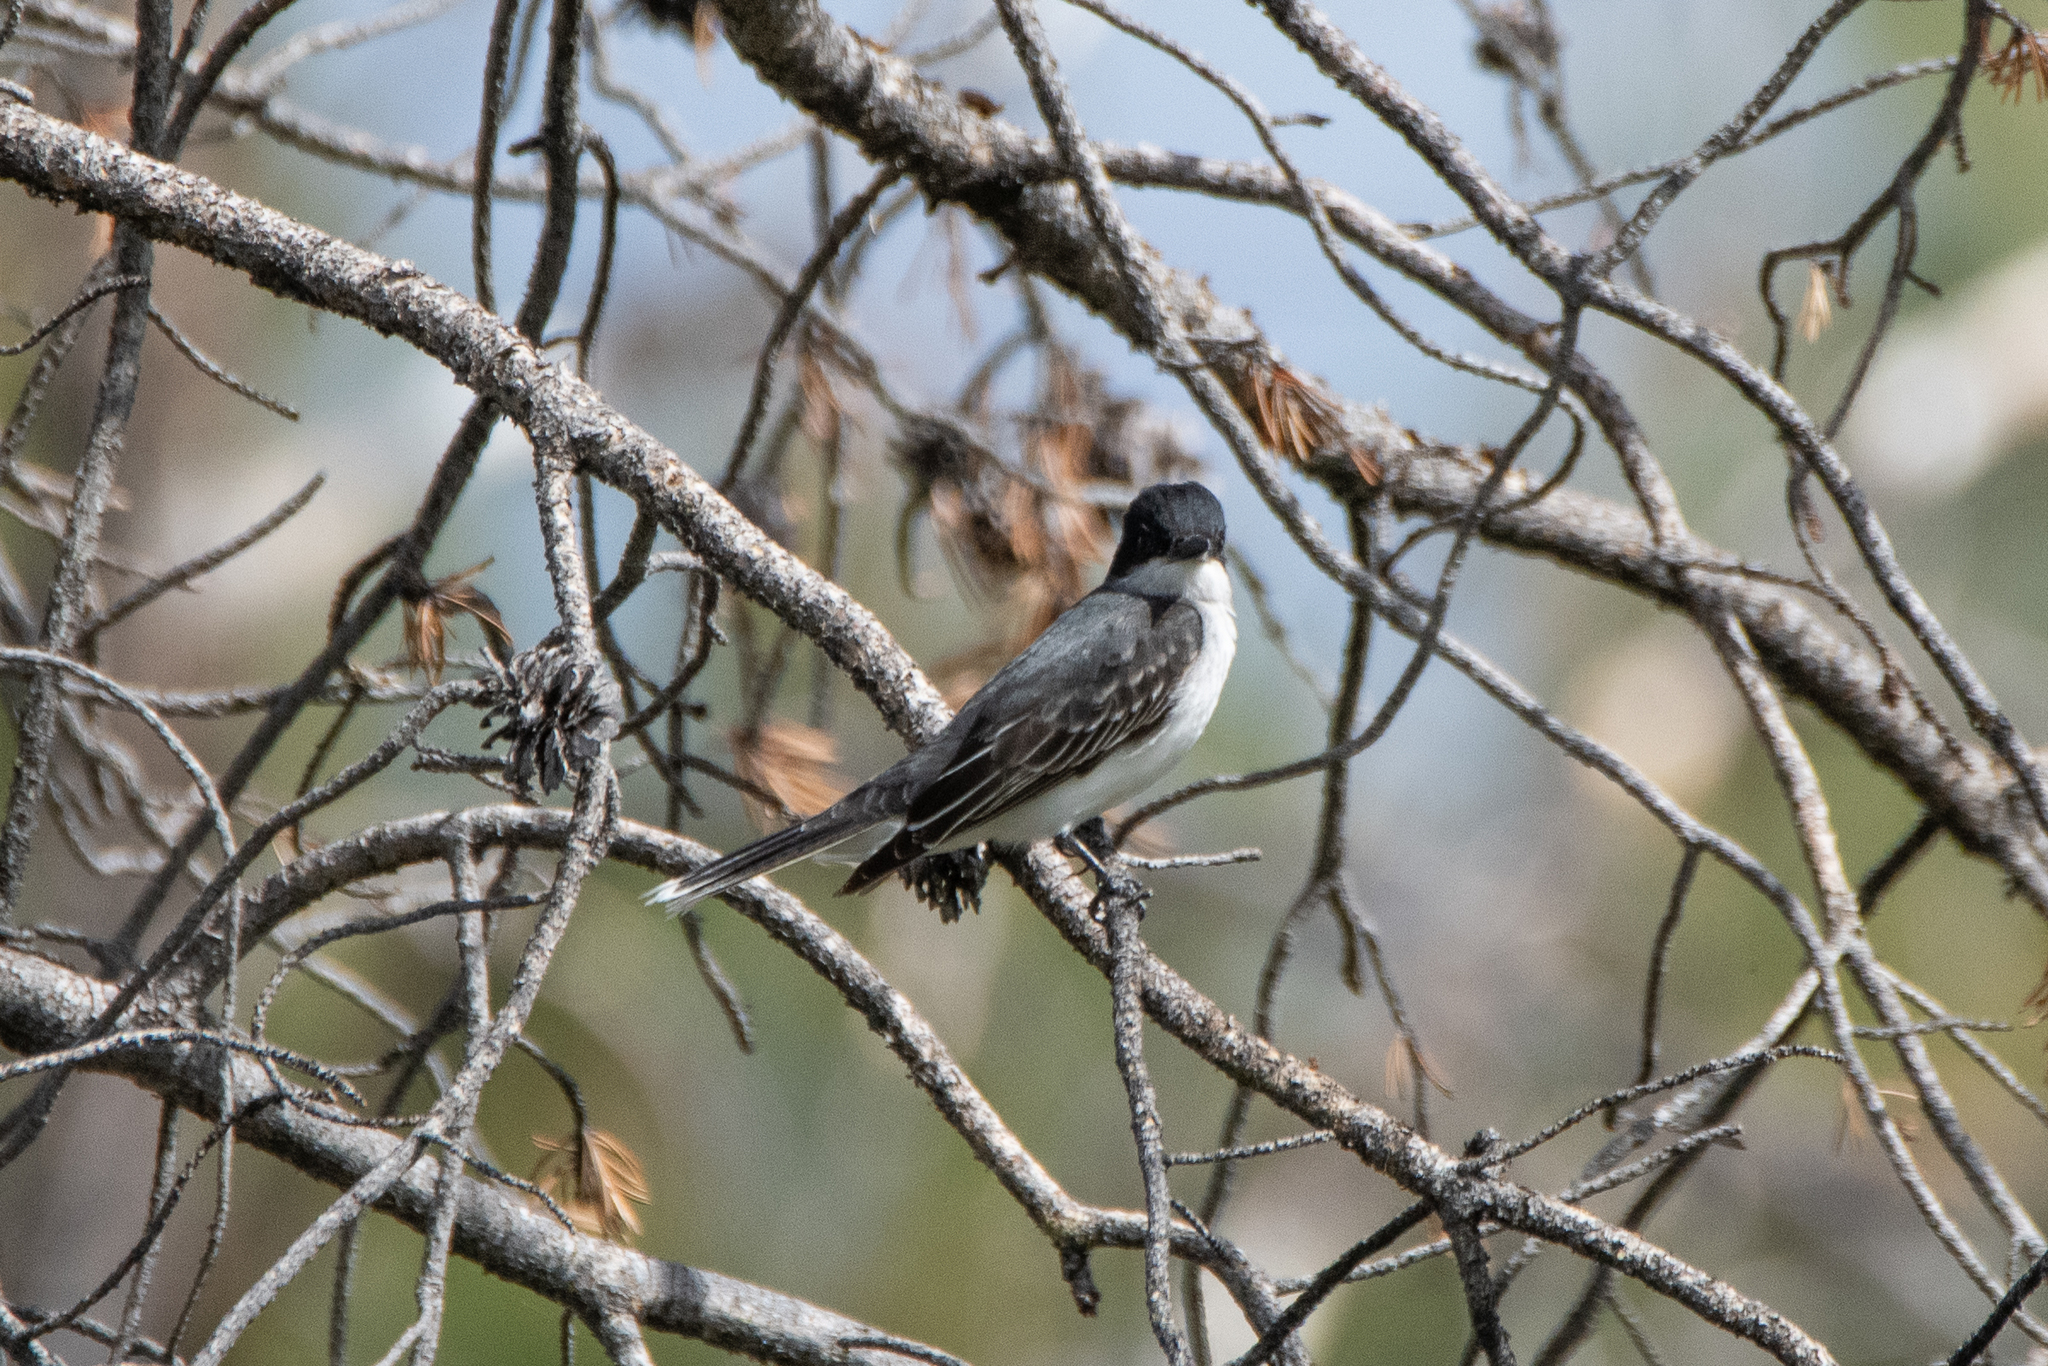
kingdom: Animalia
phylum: Chordata
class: Aves
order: Passeriformes
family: Tyrannidae
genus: Tyrannus
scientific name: Tyrannus tyrannus
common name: Eastern kingbird
